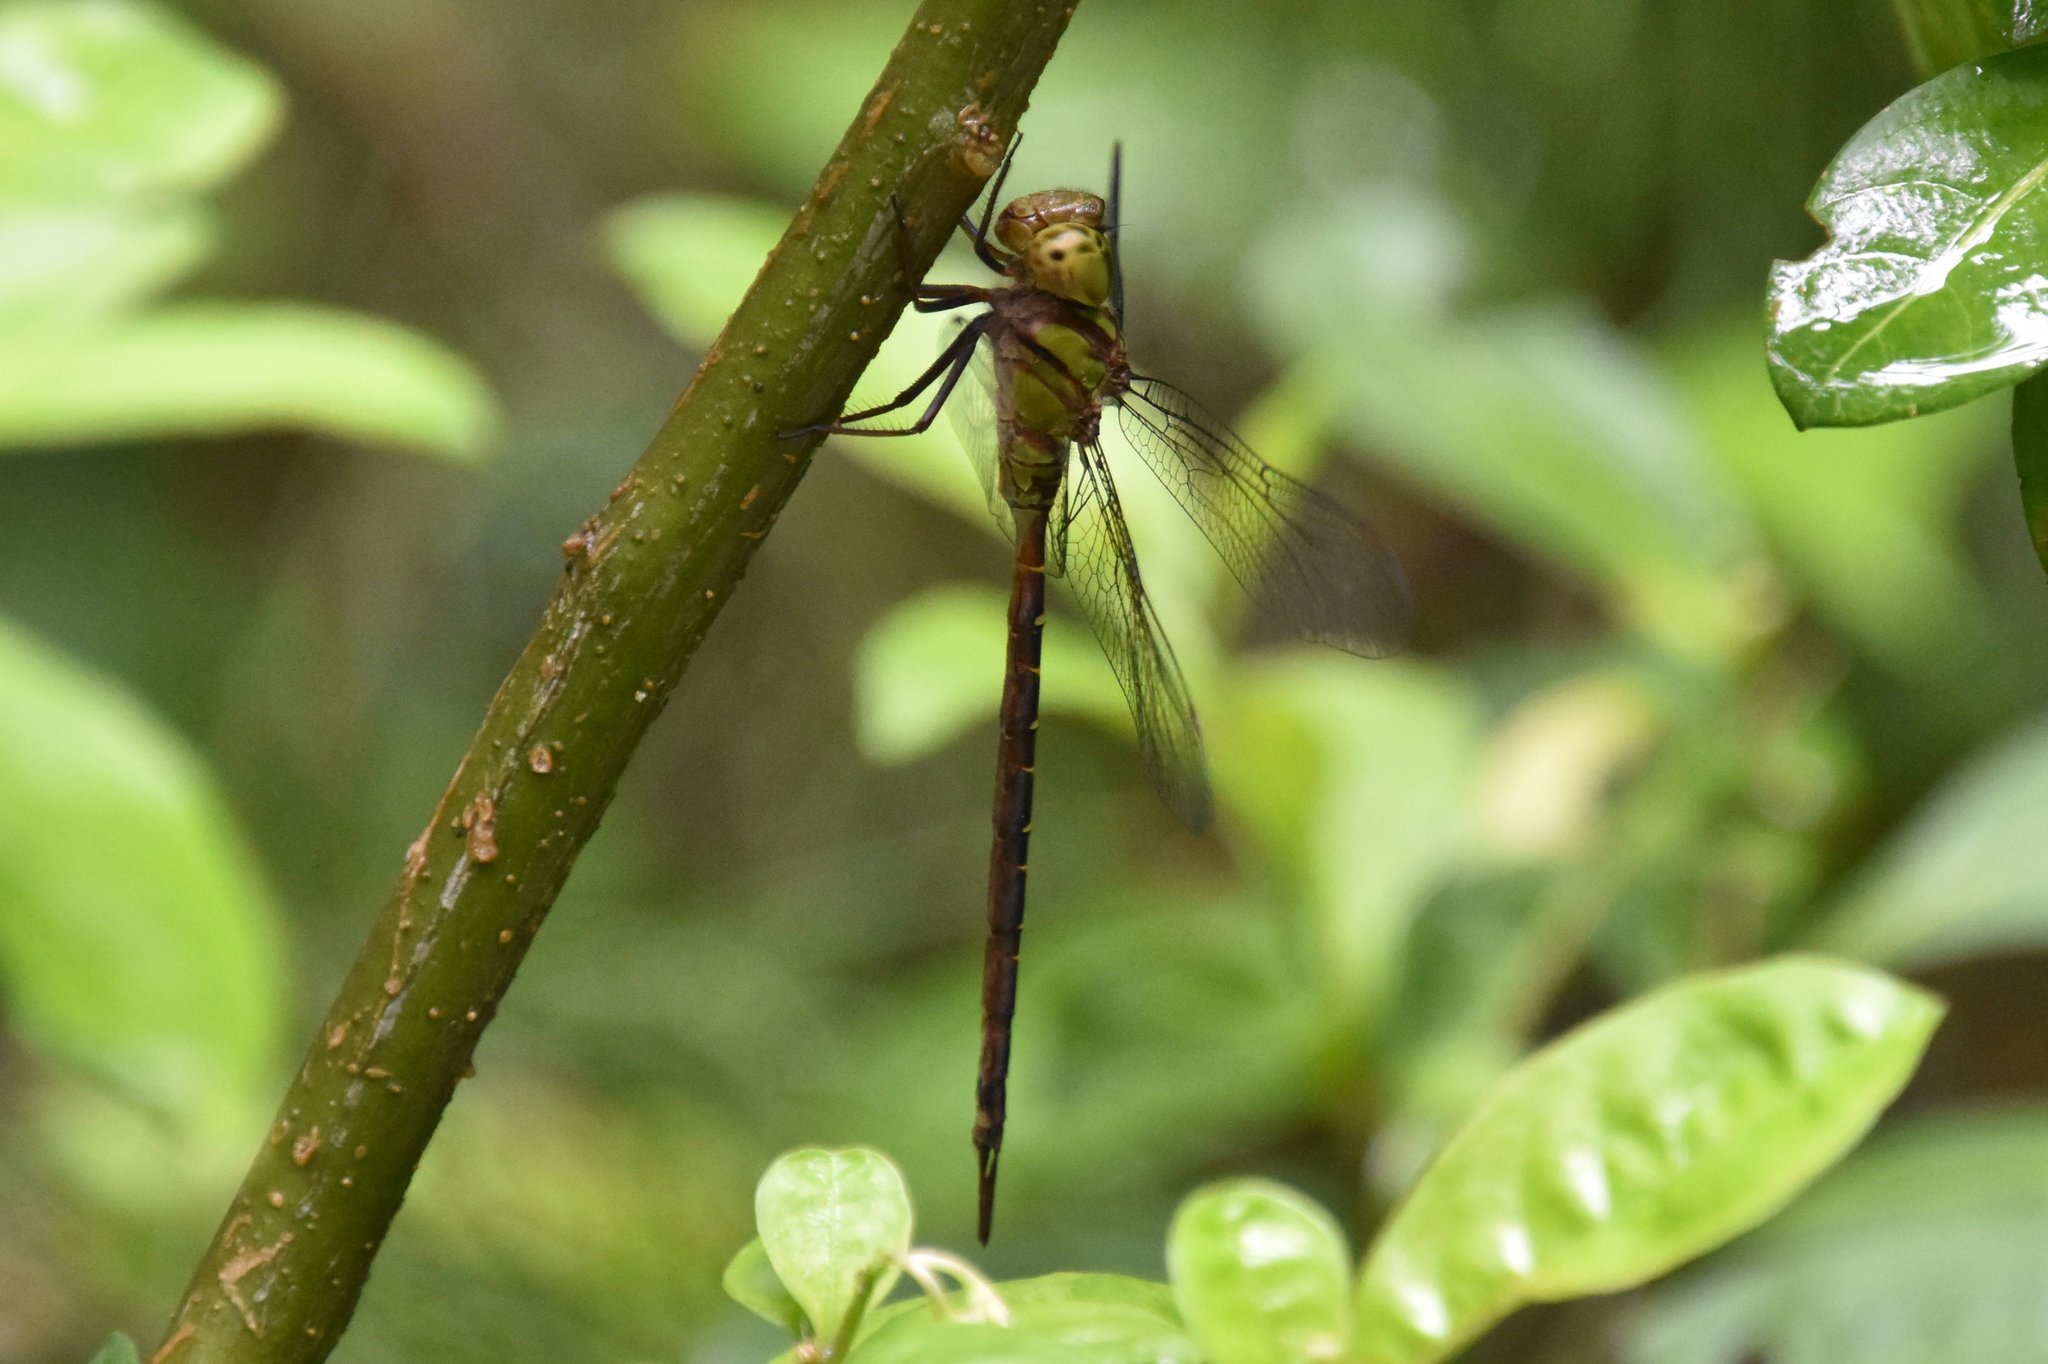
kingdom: Animalia
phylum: Arthropoda
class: Insecta
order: Odonata
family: Aeshnidae
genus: Triacanthagyna
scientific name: Triacanthagyna trifida
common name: Phantom darner
